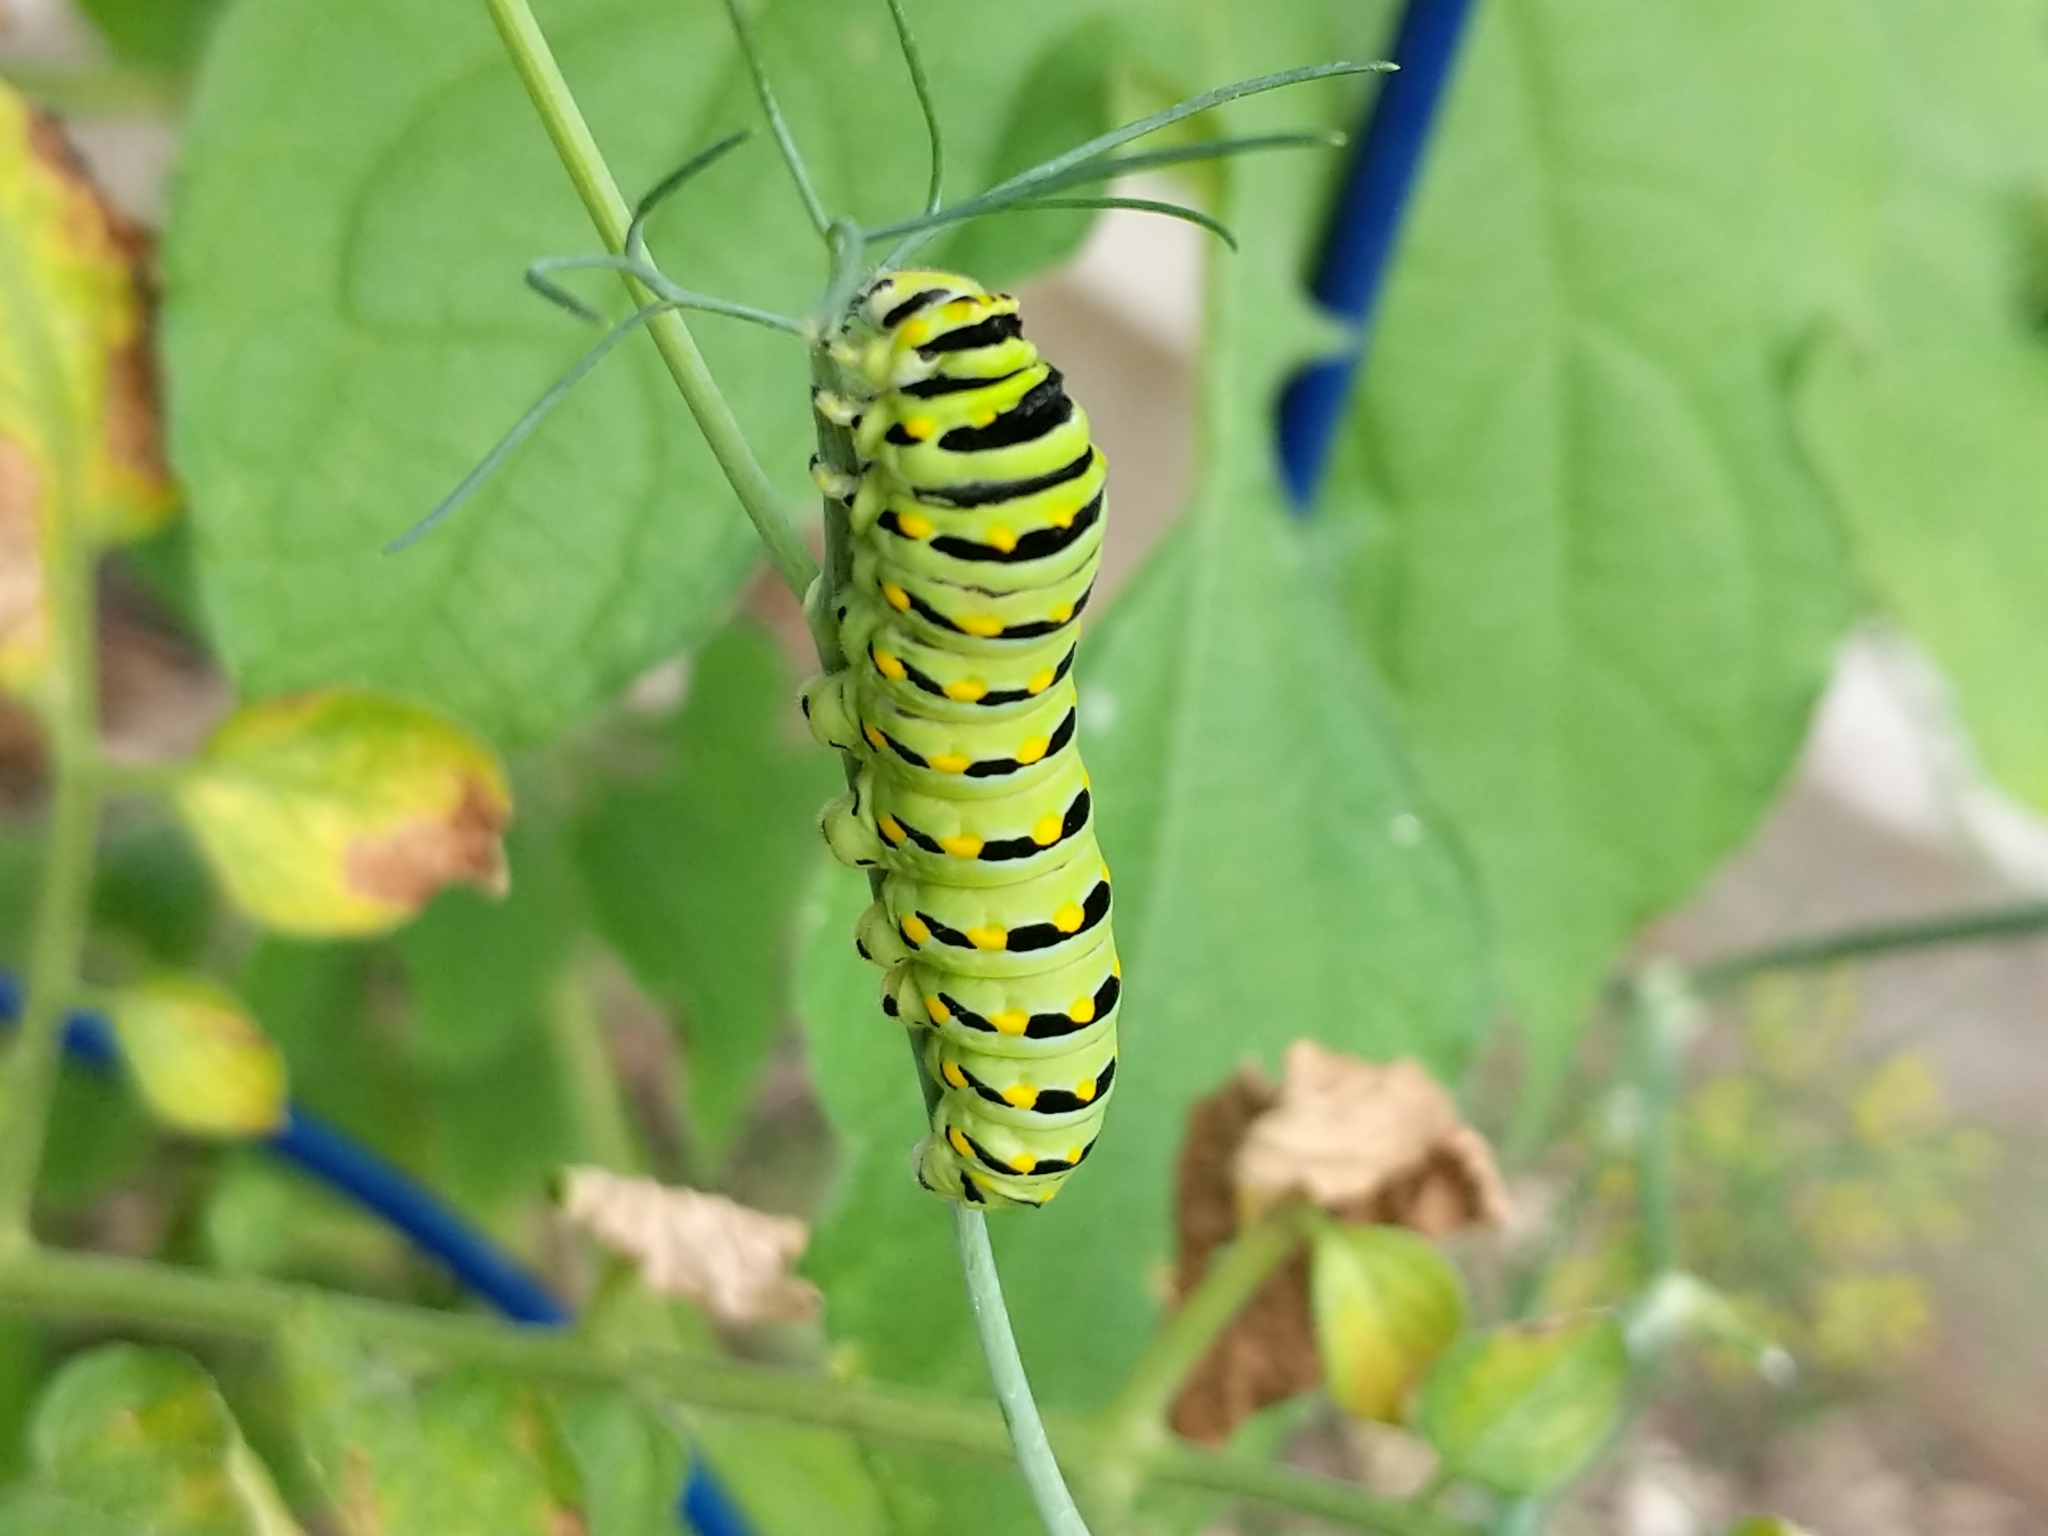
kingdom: Animalia
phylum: Arthropoda
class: Insecta
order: Lepidoptera
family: Papilionidae
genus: Papilio
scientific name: Papilio polyxenes
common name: Black swallowtail
